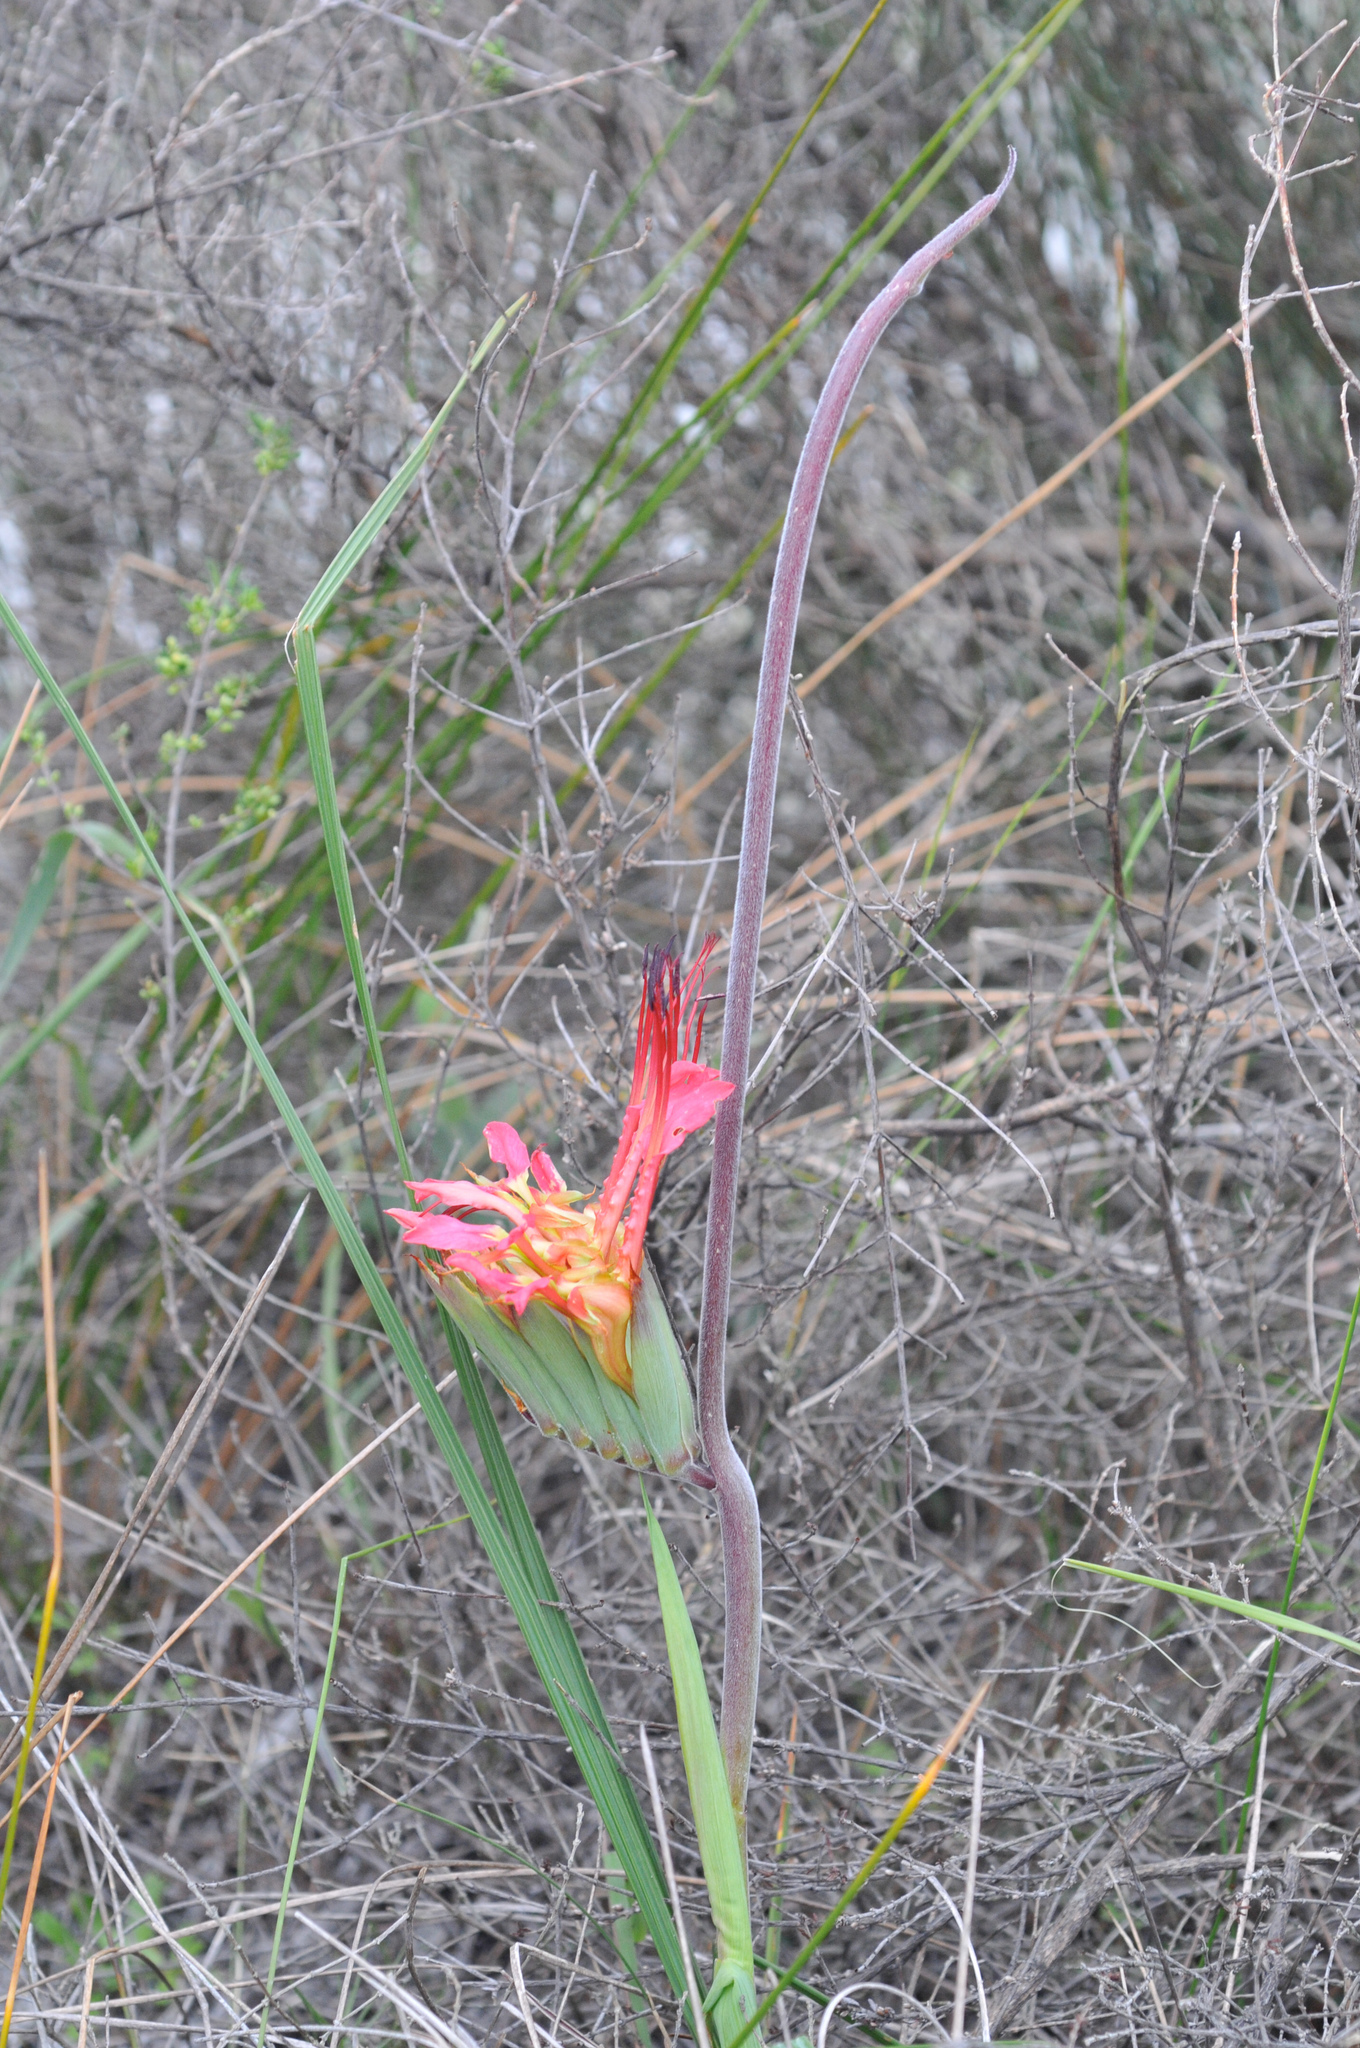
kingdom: Plantae
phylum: Tracheophyta
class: Liliopsida
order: Asparagales
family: Iridaceae
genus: Babiana
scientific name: Babiana ringens
